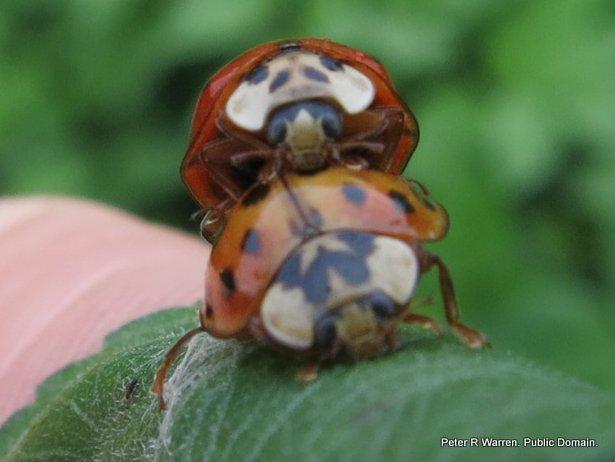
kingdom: Animalia
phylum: Arthropoda
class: Insecta
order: Coleoptera
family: Coccinellidae
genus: Harmonia
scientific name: Harmonia axyridis
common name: Harlequin ladybird
